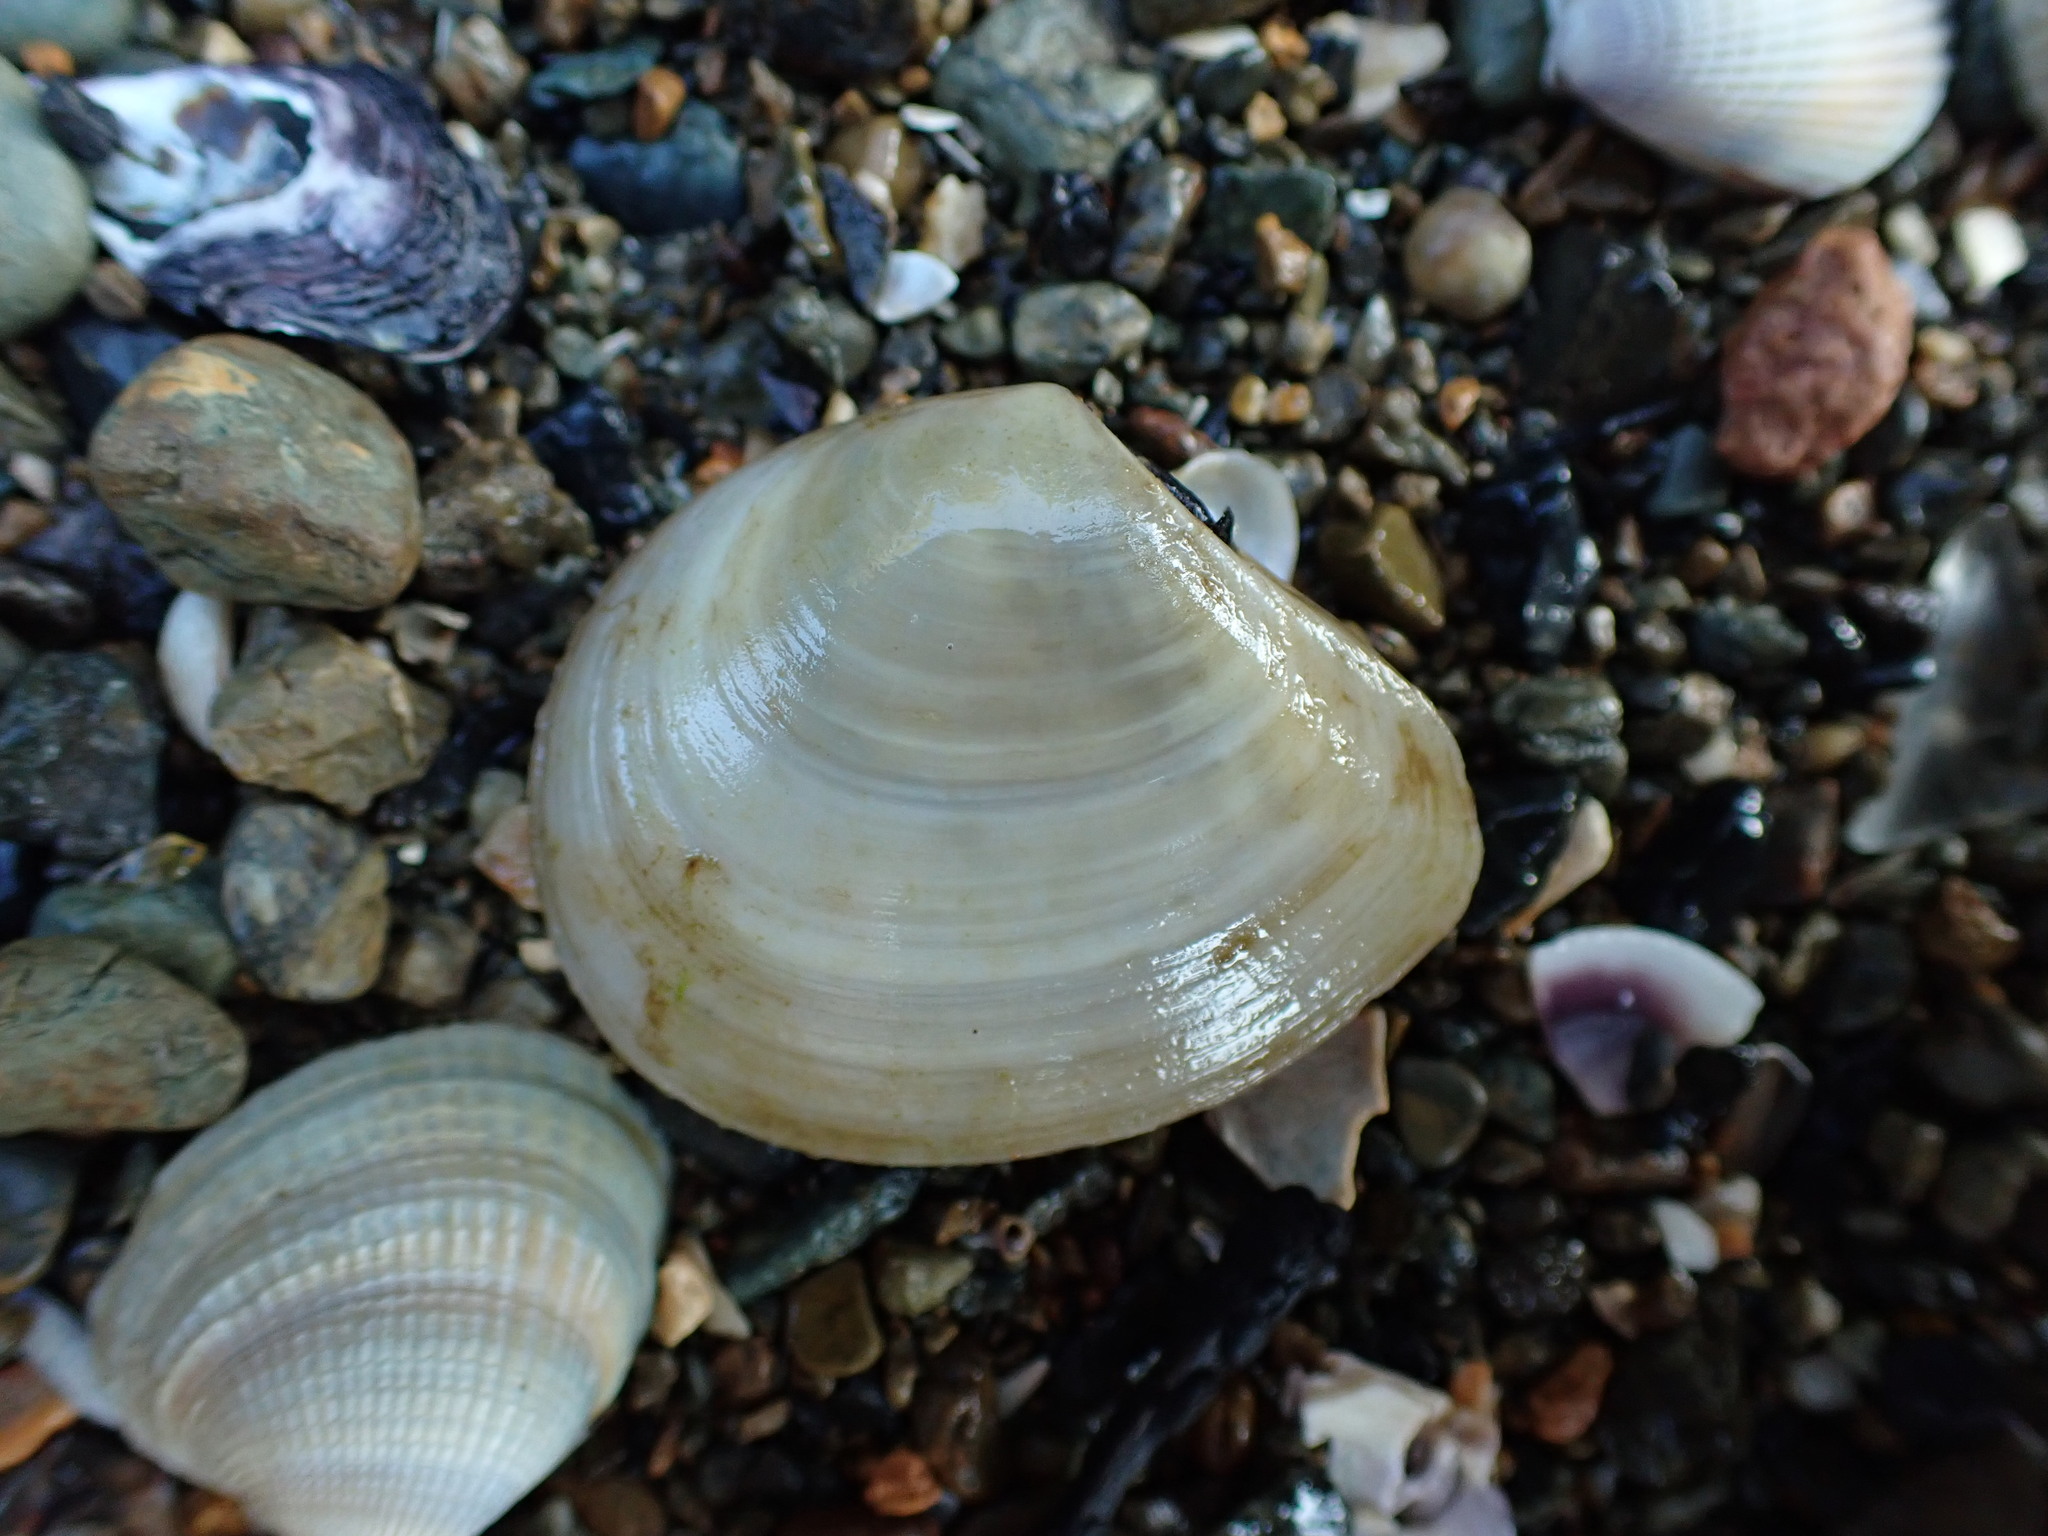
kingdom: Animalia
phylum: Mollusca
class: Bivalvia
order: Cardiida
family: Tellinidae
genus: Macomona
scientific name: Macomona liliana
